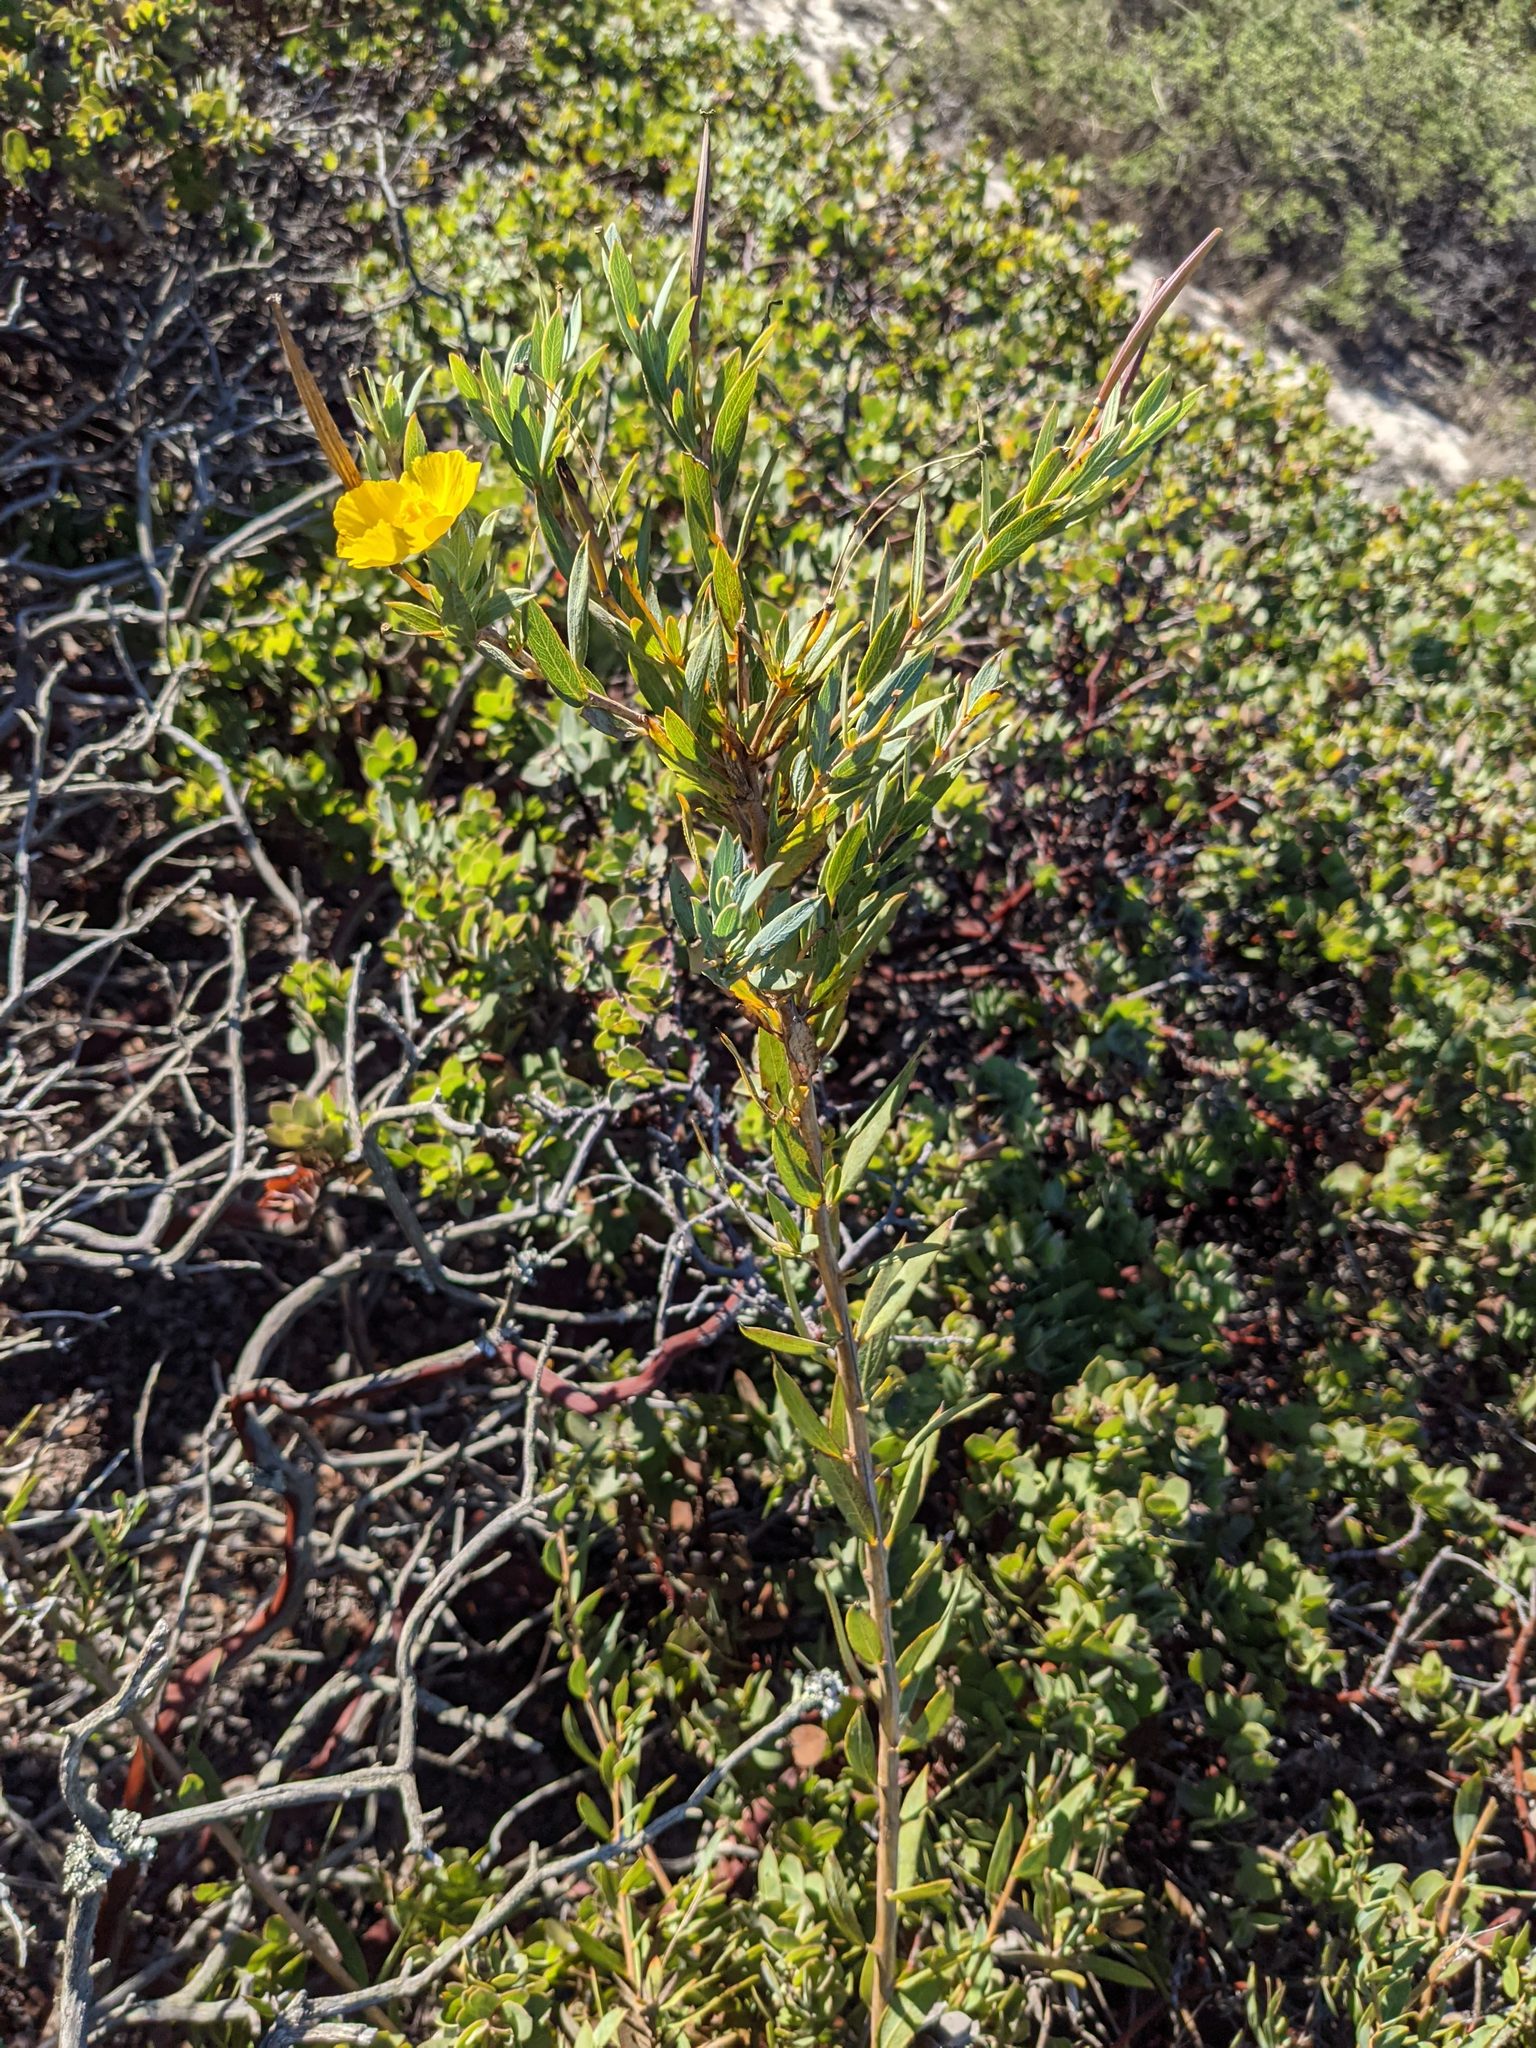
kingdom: Plantae
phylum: Tracheophyta
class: Magnoliopsida
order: Ranunculales
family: Papaveraceae
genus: Dendromecon
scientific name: Dendromecon rigida
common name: Tree poppy
